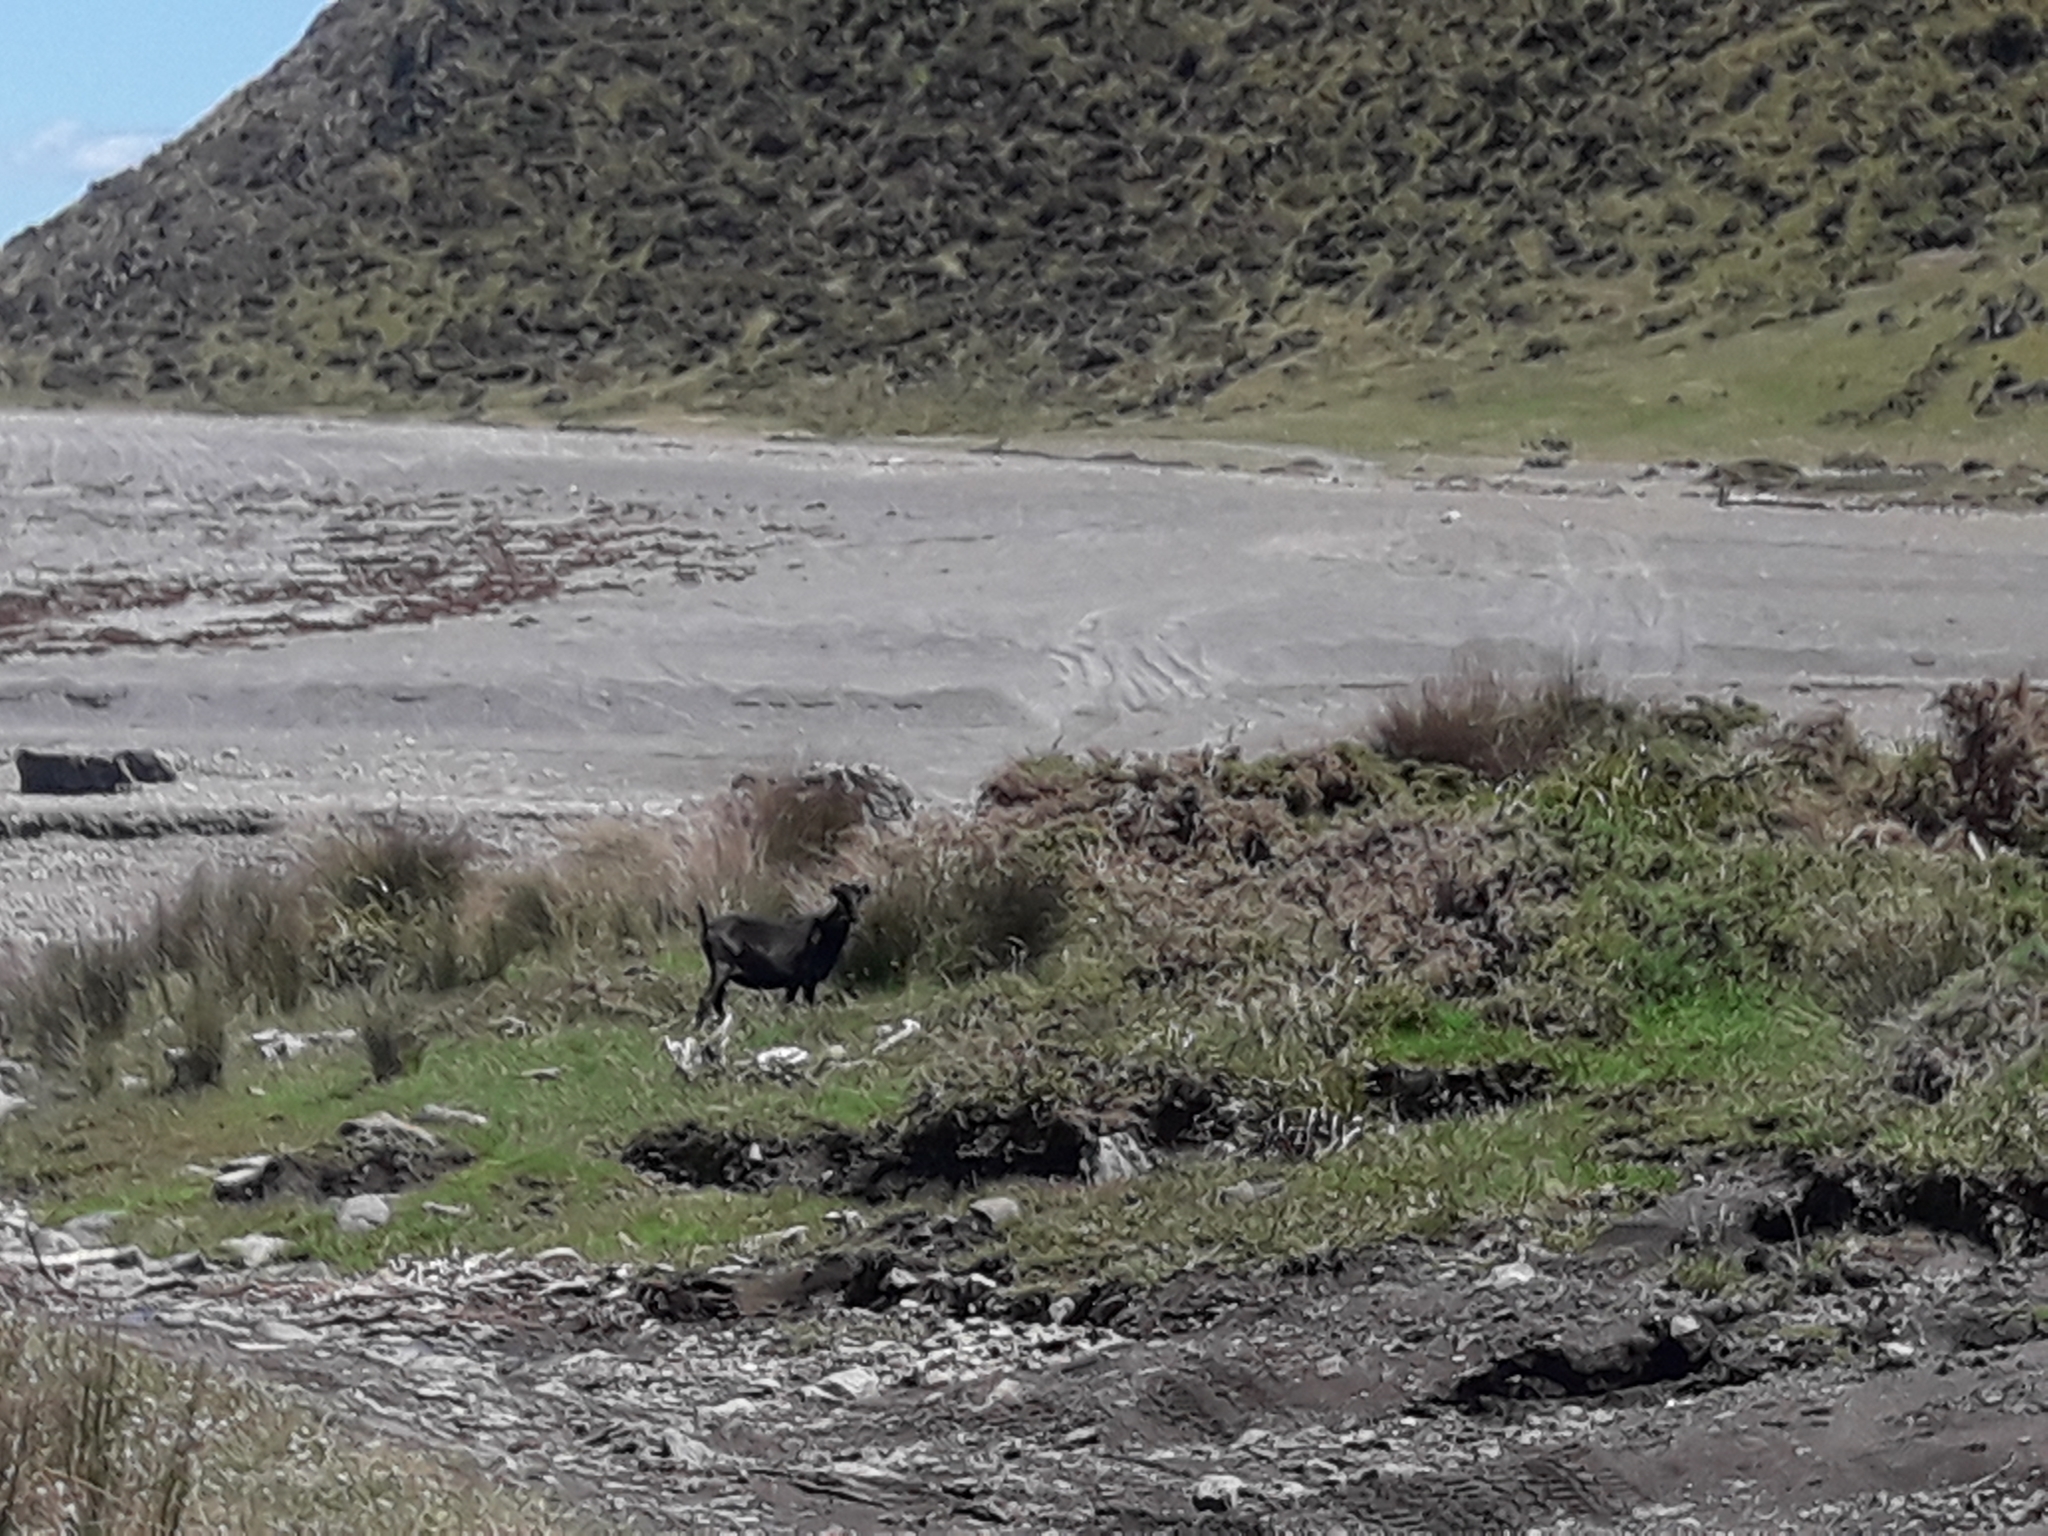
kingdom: Animalia
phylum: Chordata
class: Mammalia
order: Artiodactyla
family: Bovidae
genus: Capra
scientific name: Capra hircus
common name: Domestic goat
